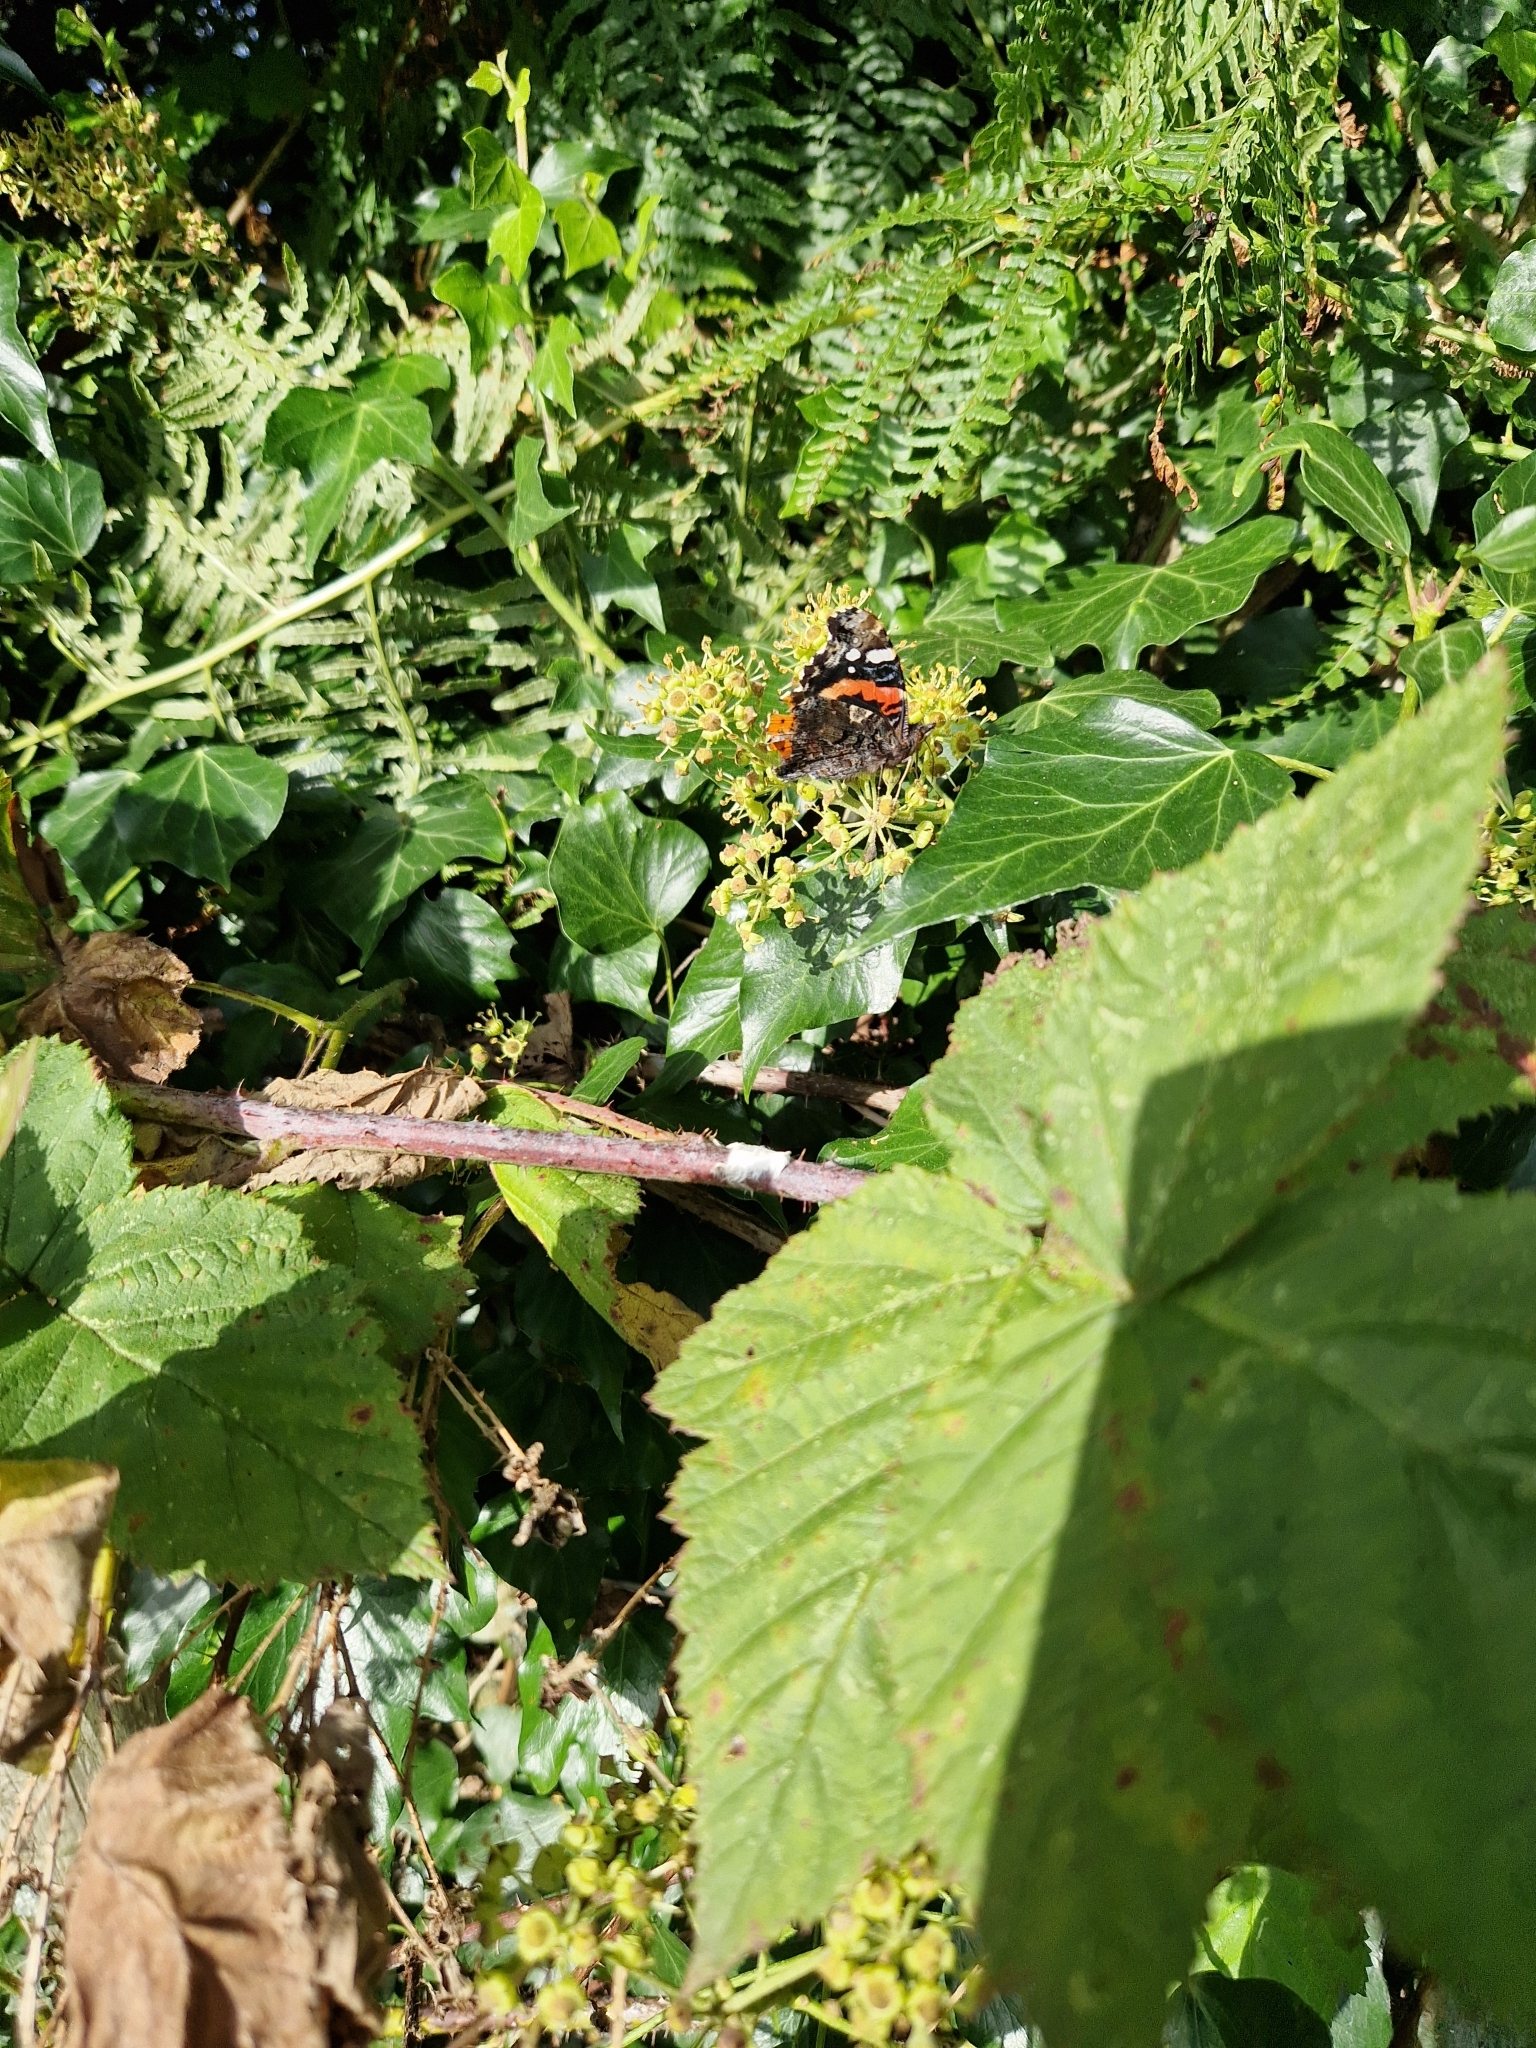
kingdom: Animalia
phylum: Arthropoda
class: Insecta
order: Lepidoptera
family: Nymphalidae
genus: Vanessa
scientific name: Vanessa atalanta
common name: Red admiral
